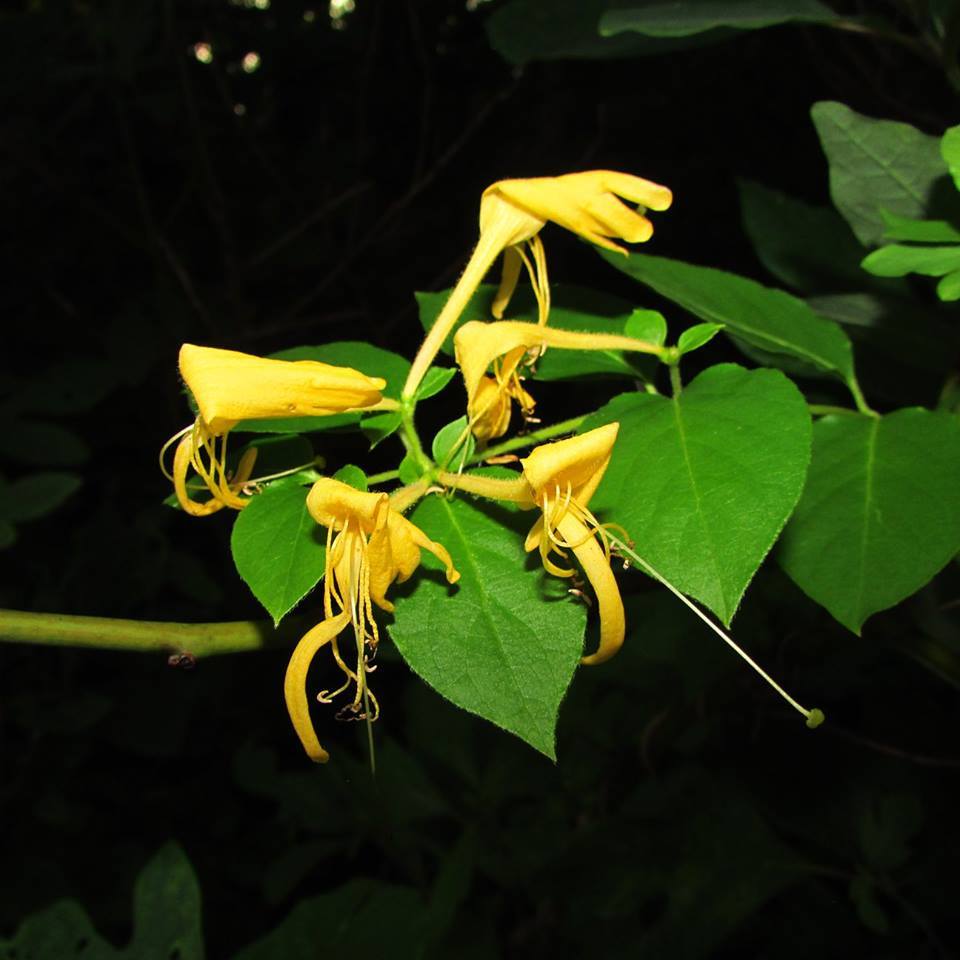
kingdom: Plantae
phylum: Tracheophyta
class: Magnoliopsida
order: Dipsacales
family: Caprifoliaceae
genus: Lonicera
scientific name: Lonicera japonica
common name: Japanese honeysuckle
